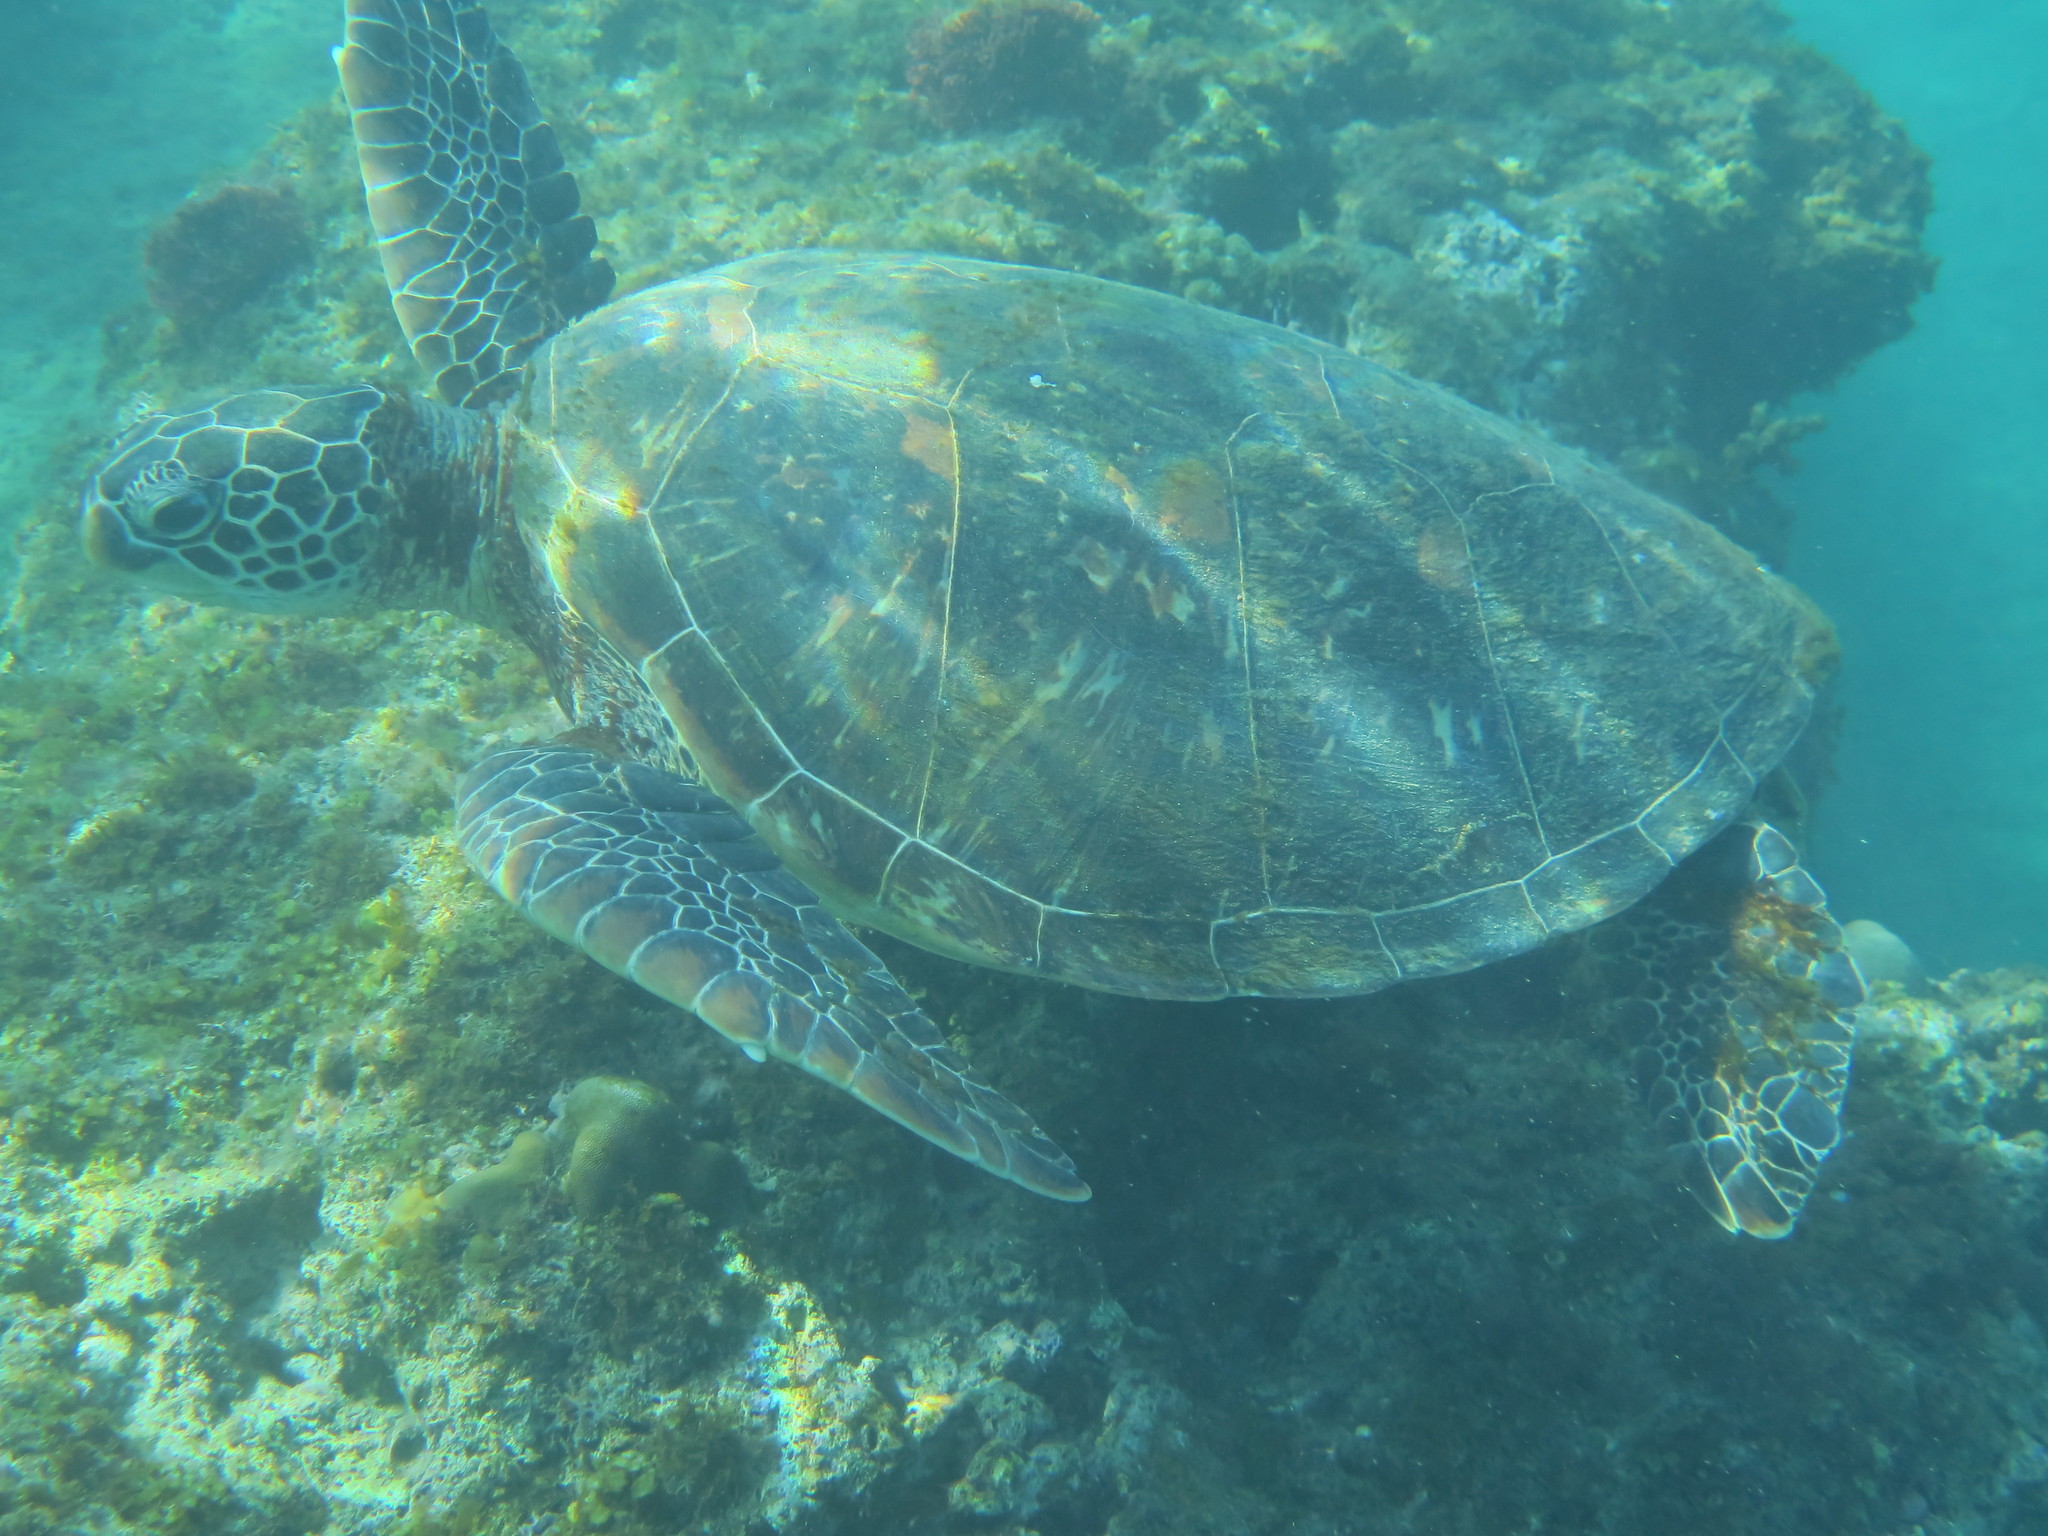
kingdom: Animalia
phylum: Chordata
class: Testudines
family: Cheloniidae
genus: Chelonia
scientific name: Chelonia mydas
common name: Green turtle
